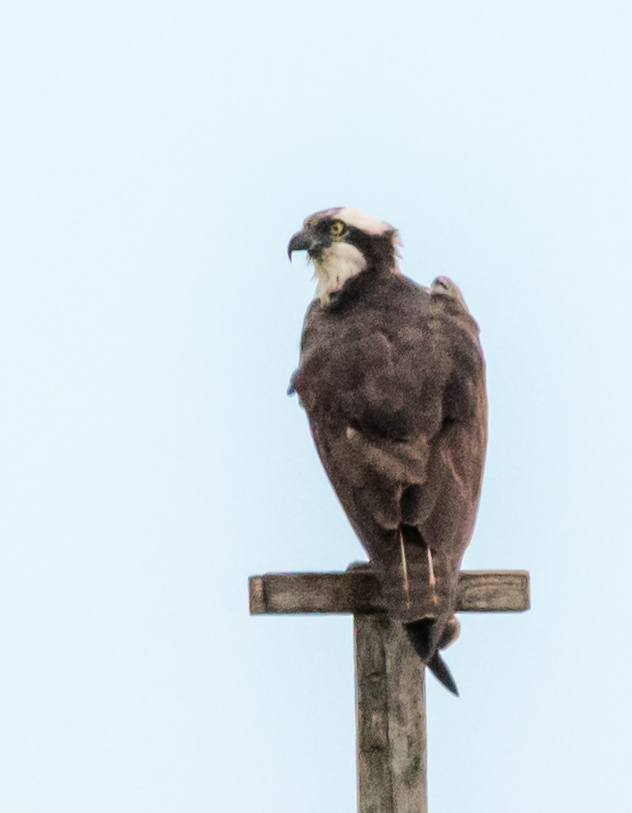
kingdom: Animalia
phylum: Chordata
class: Aves
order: Accipitriformes
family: Pandionidae
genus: Pandion
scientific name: Pandion haliaetus
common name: Osprey
